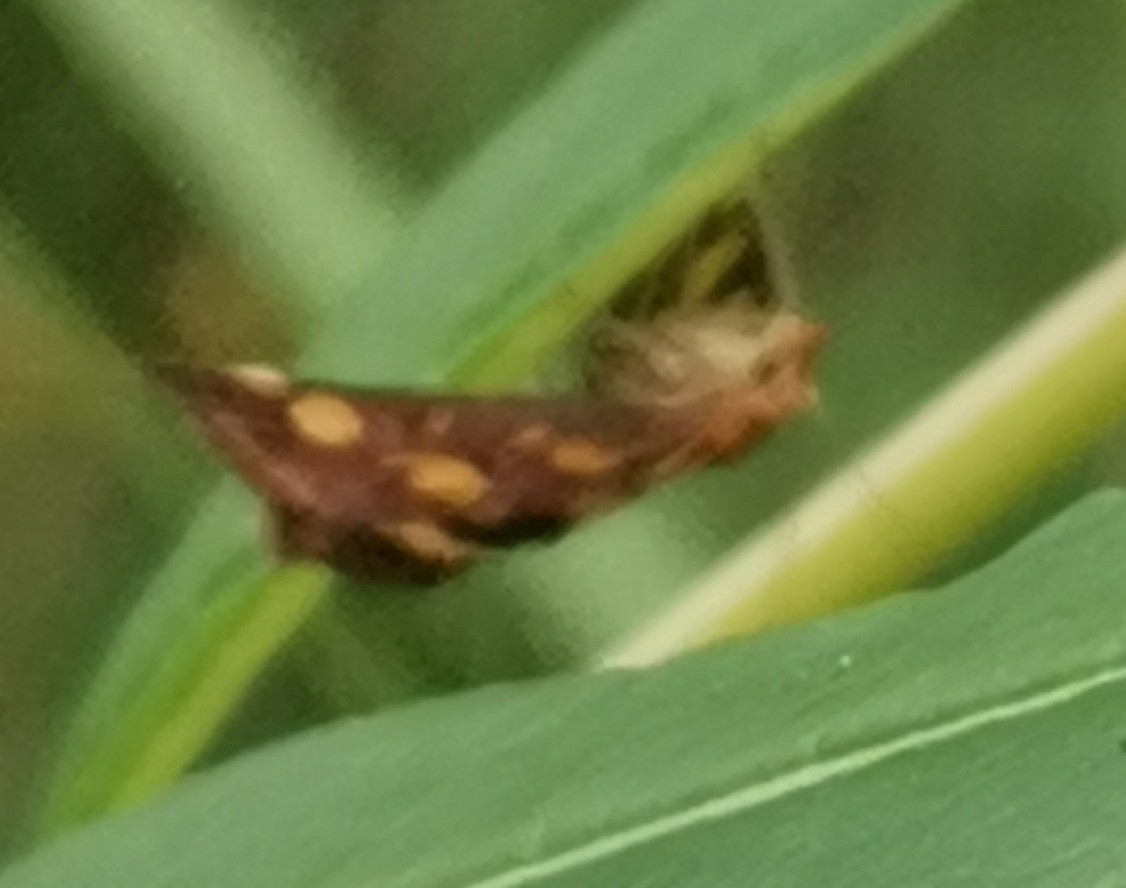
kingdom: Animalia
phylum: Arthropoda
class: Insecta
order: Lepidoptera
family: Crambidae
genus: Pyrausta
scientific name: Pyrausta purpuralis
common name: Common purple & gold
